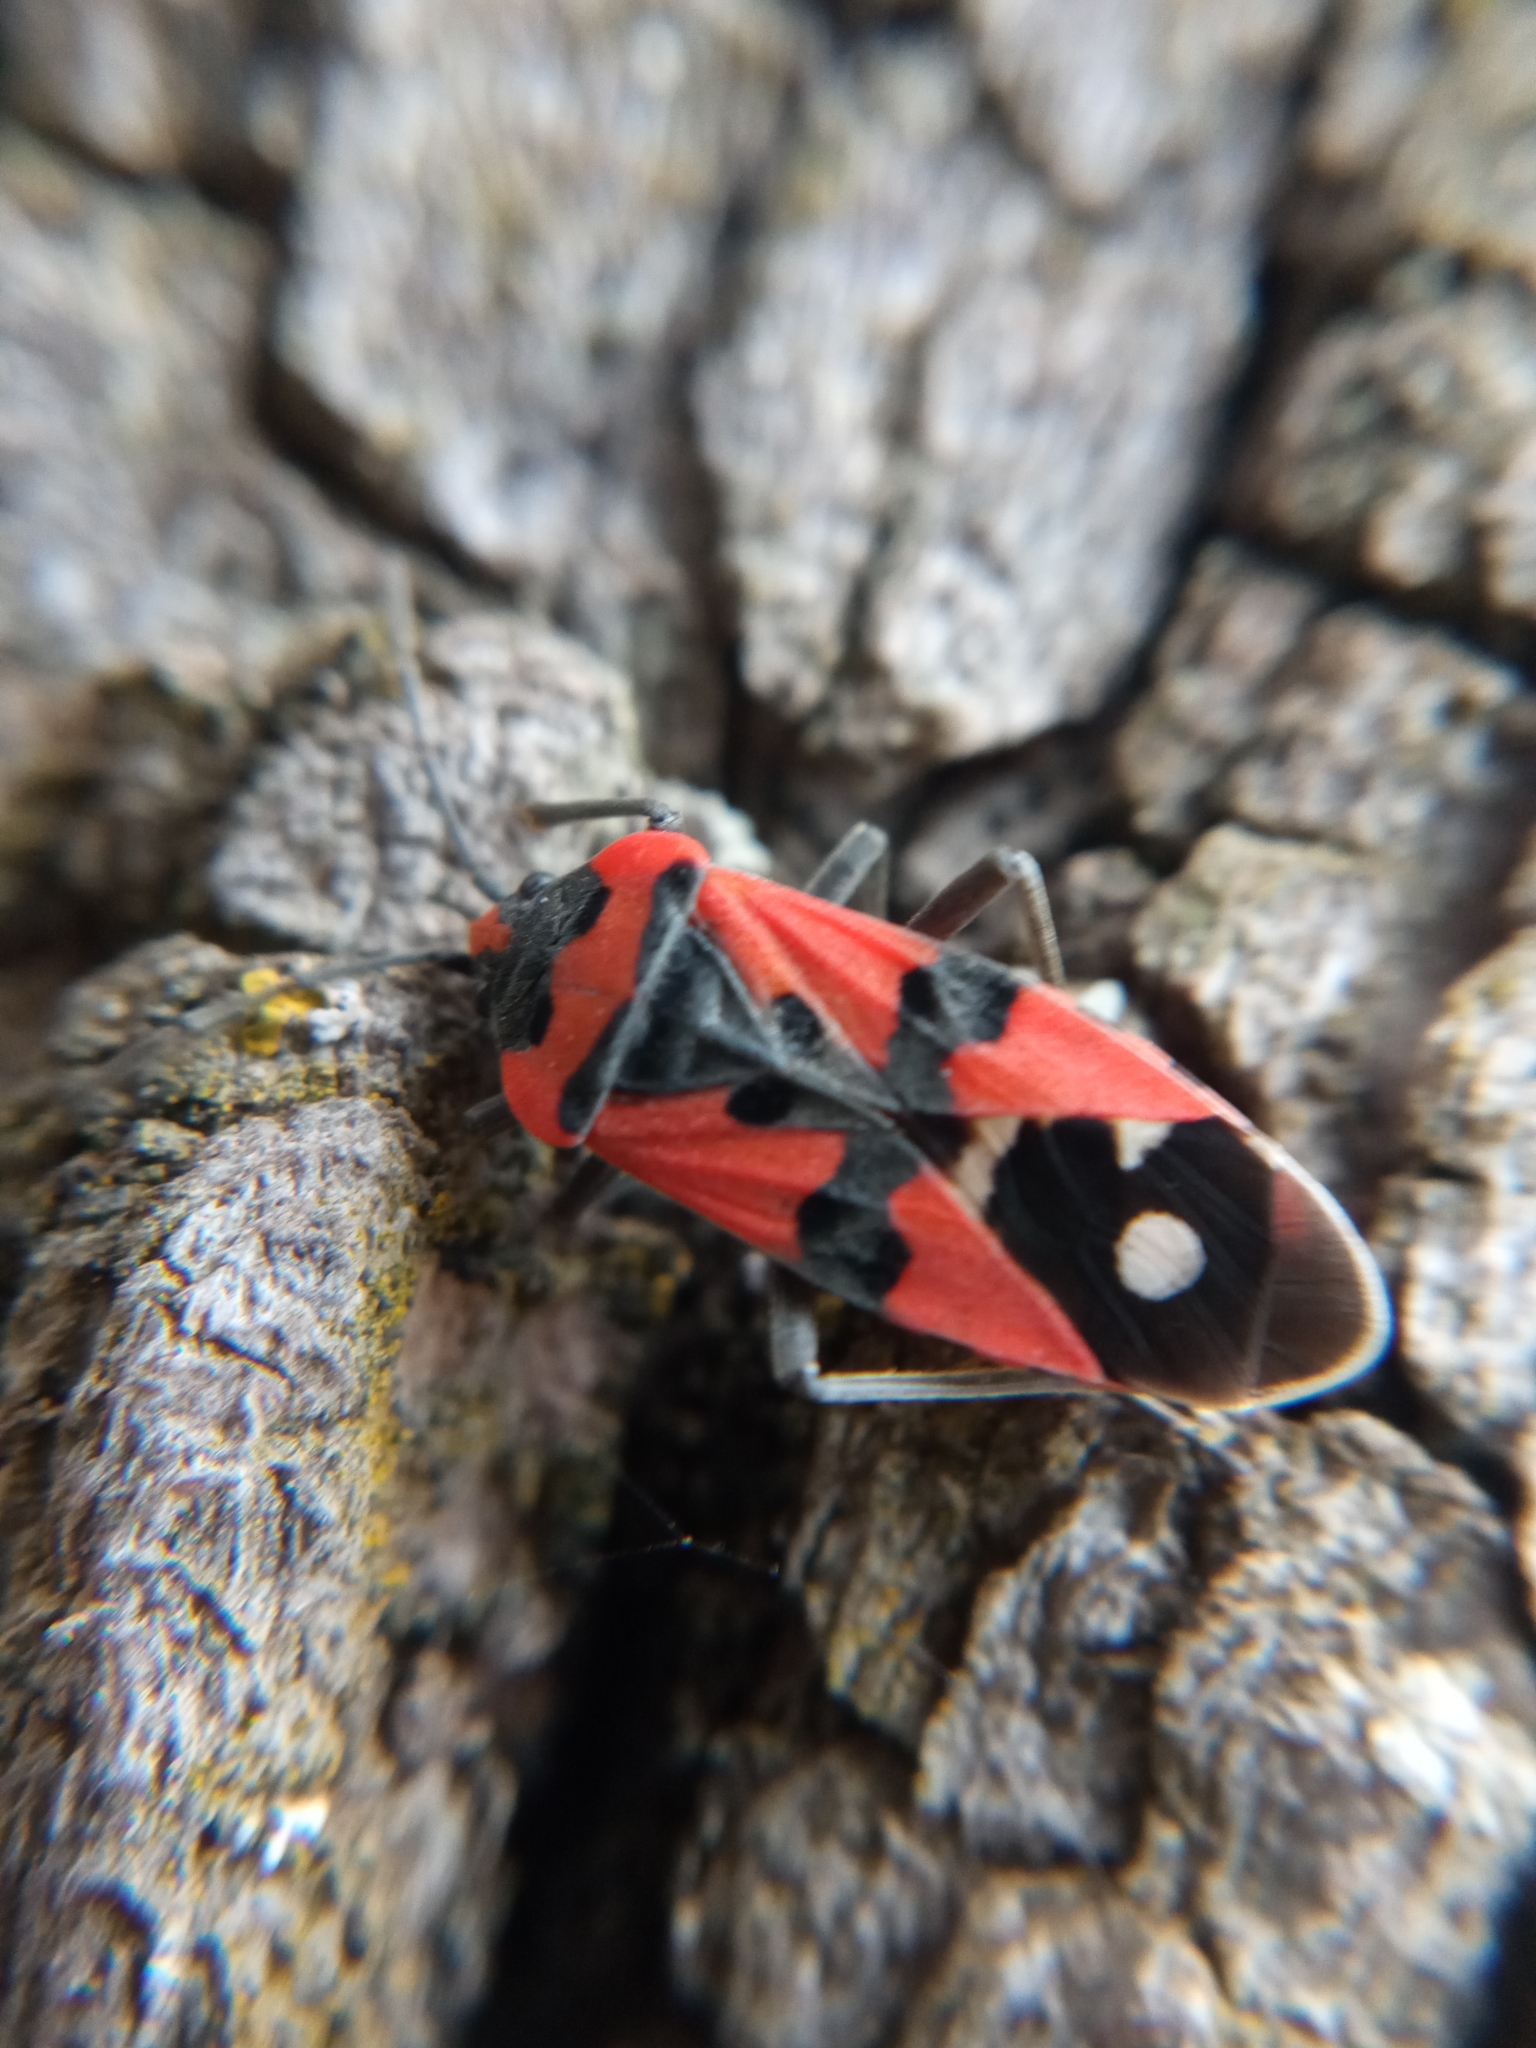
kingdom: Animalia
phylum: Arthropoda
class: Insecta
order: Hemiptera
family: Lygaeidae
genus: Lygaeus
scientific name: Lygaeus equestris
